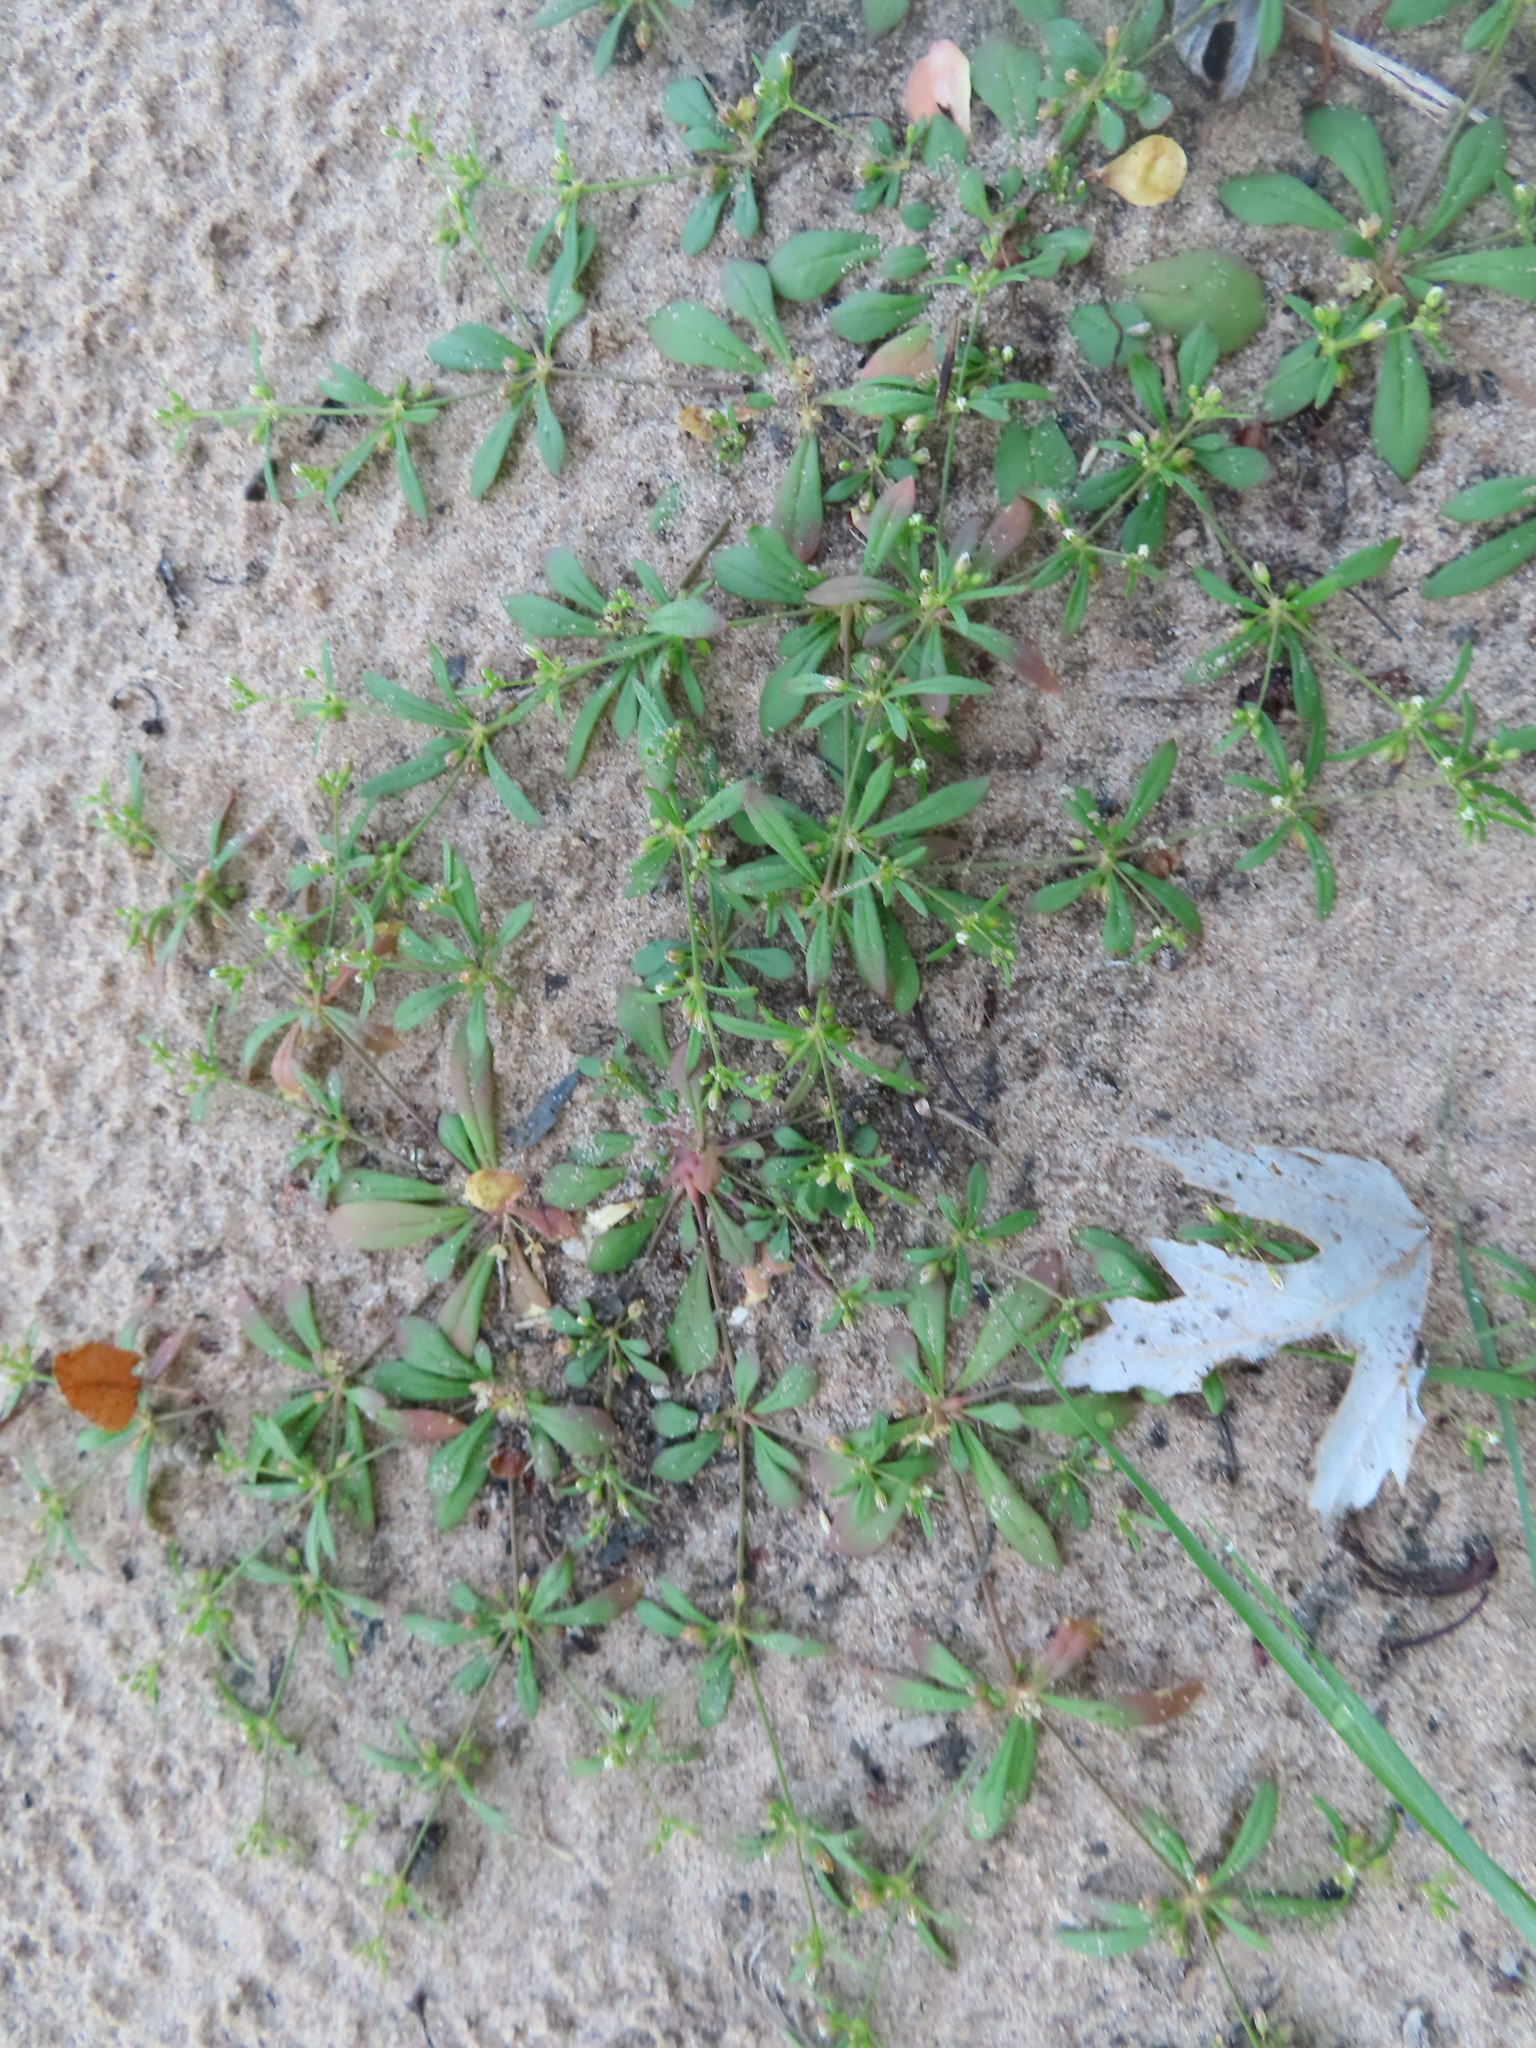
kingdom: Plantae
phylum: Tracheophyta
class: Magnoliopsida
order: Caryophyllales
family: Molluginaceae
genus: Mollugo
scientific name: Mollugo verticillata
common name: Green carpetweed
